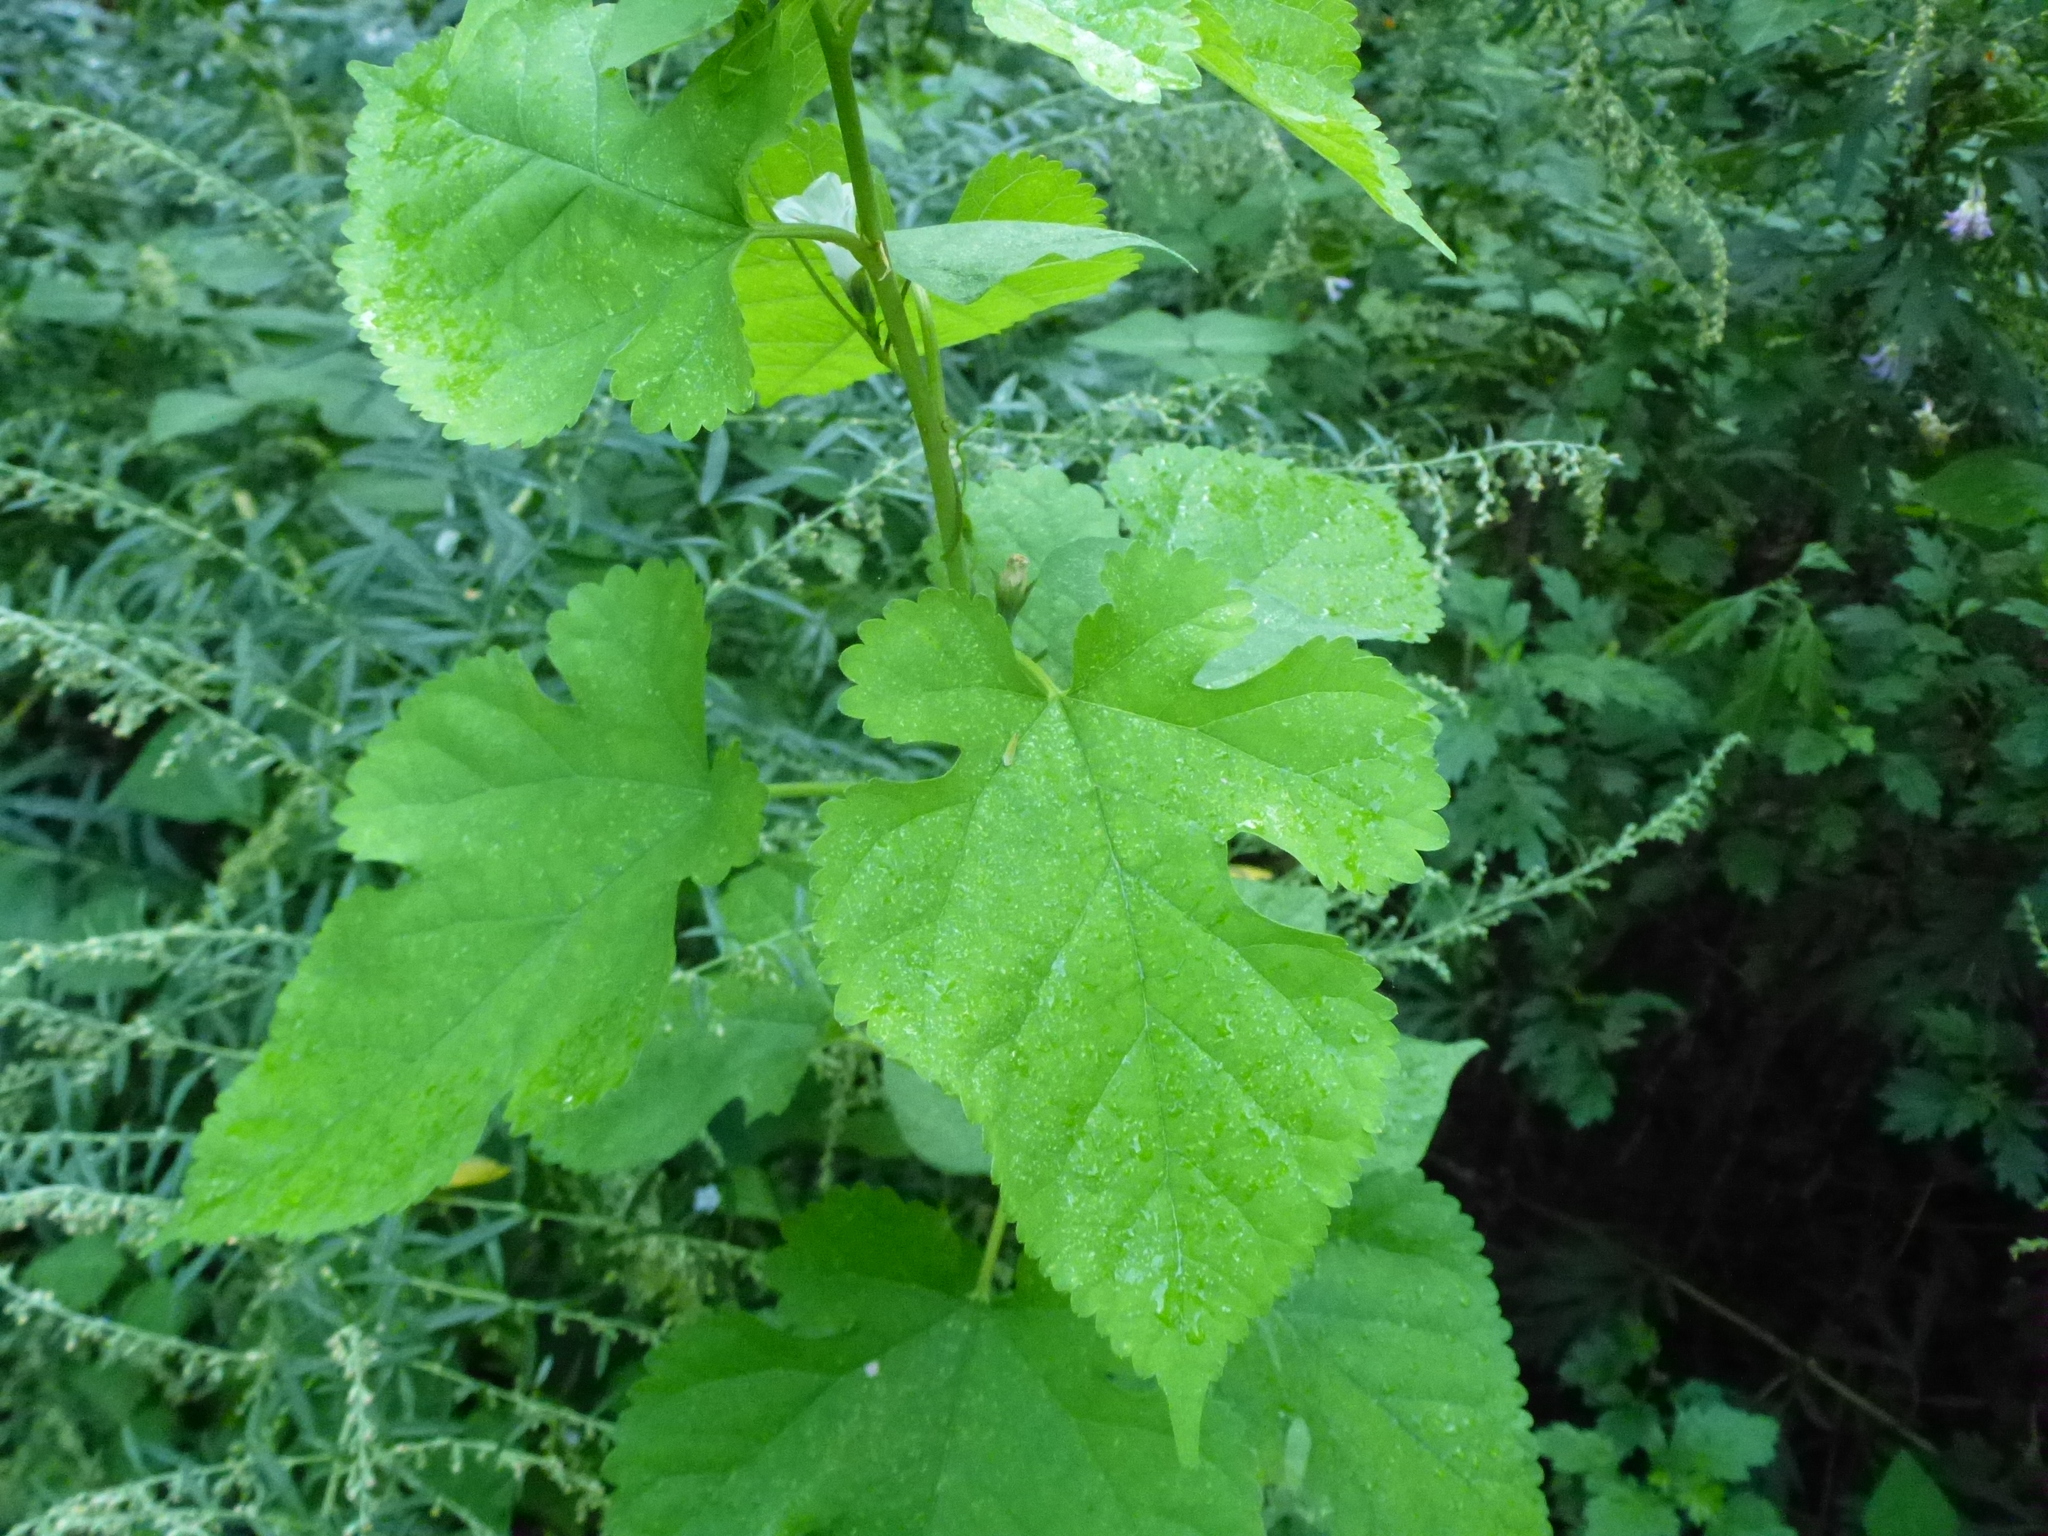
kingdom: Plantae
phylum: Tracheophyta
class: Magnoliopsida
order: Rosales
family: Moraceae
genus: Morus
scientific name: Morus alba
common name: White mulberry
